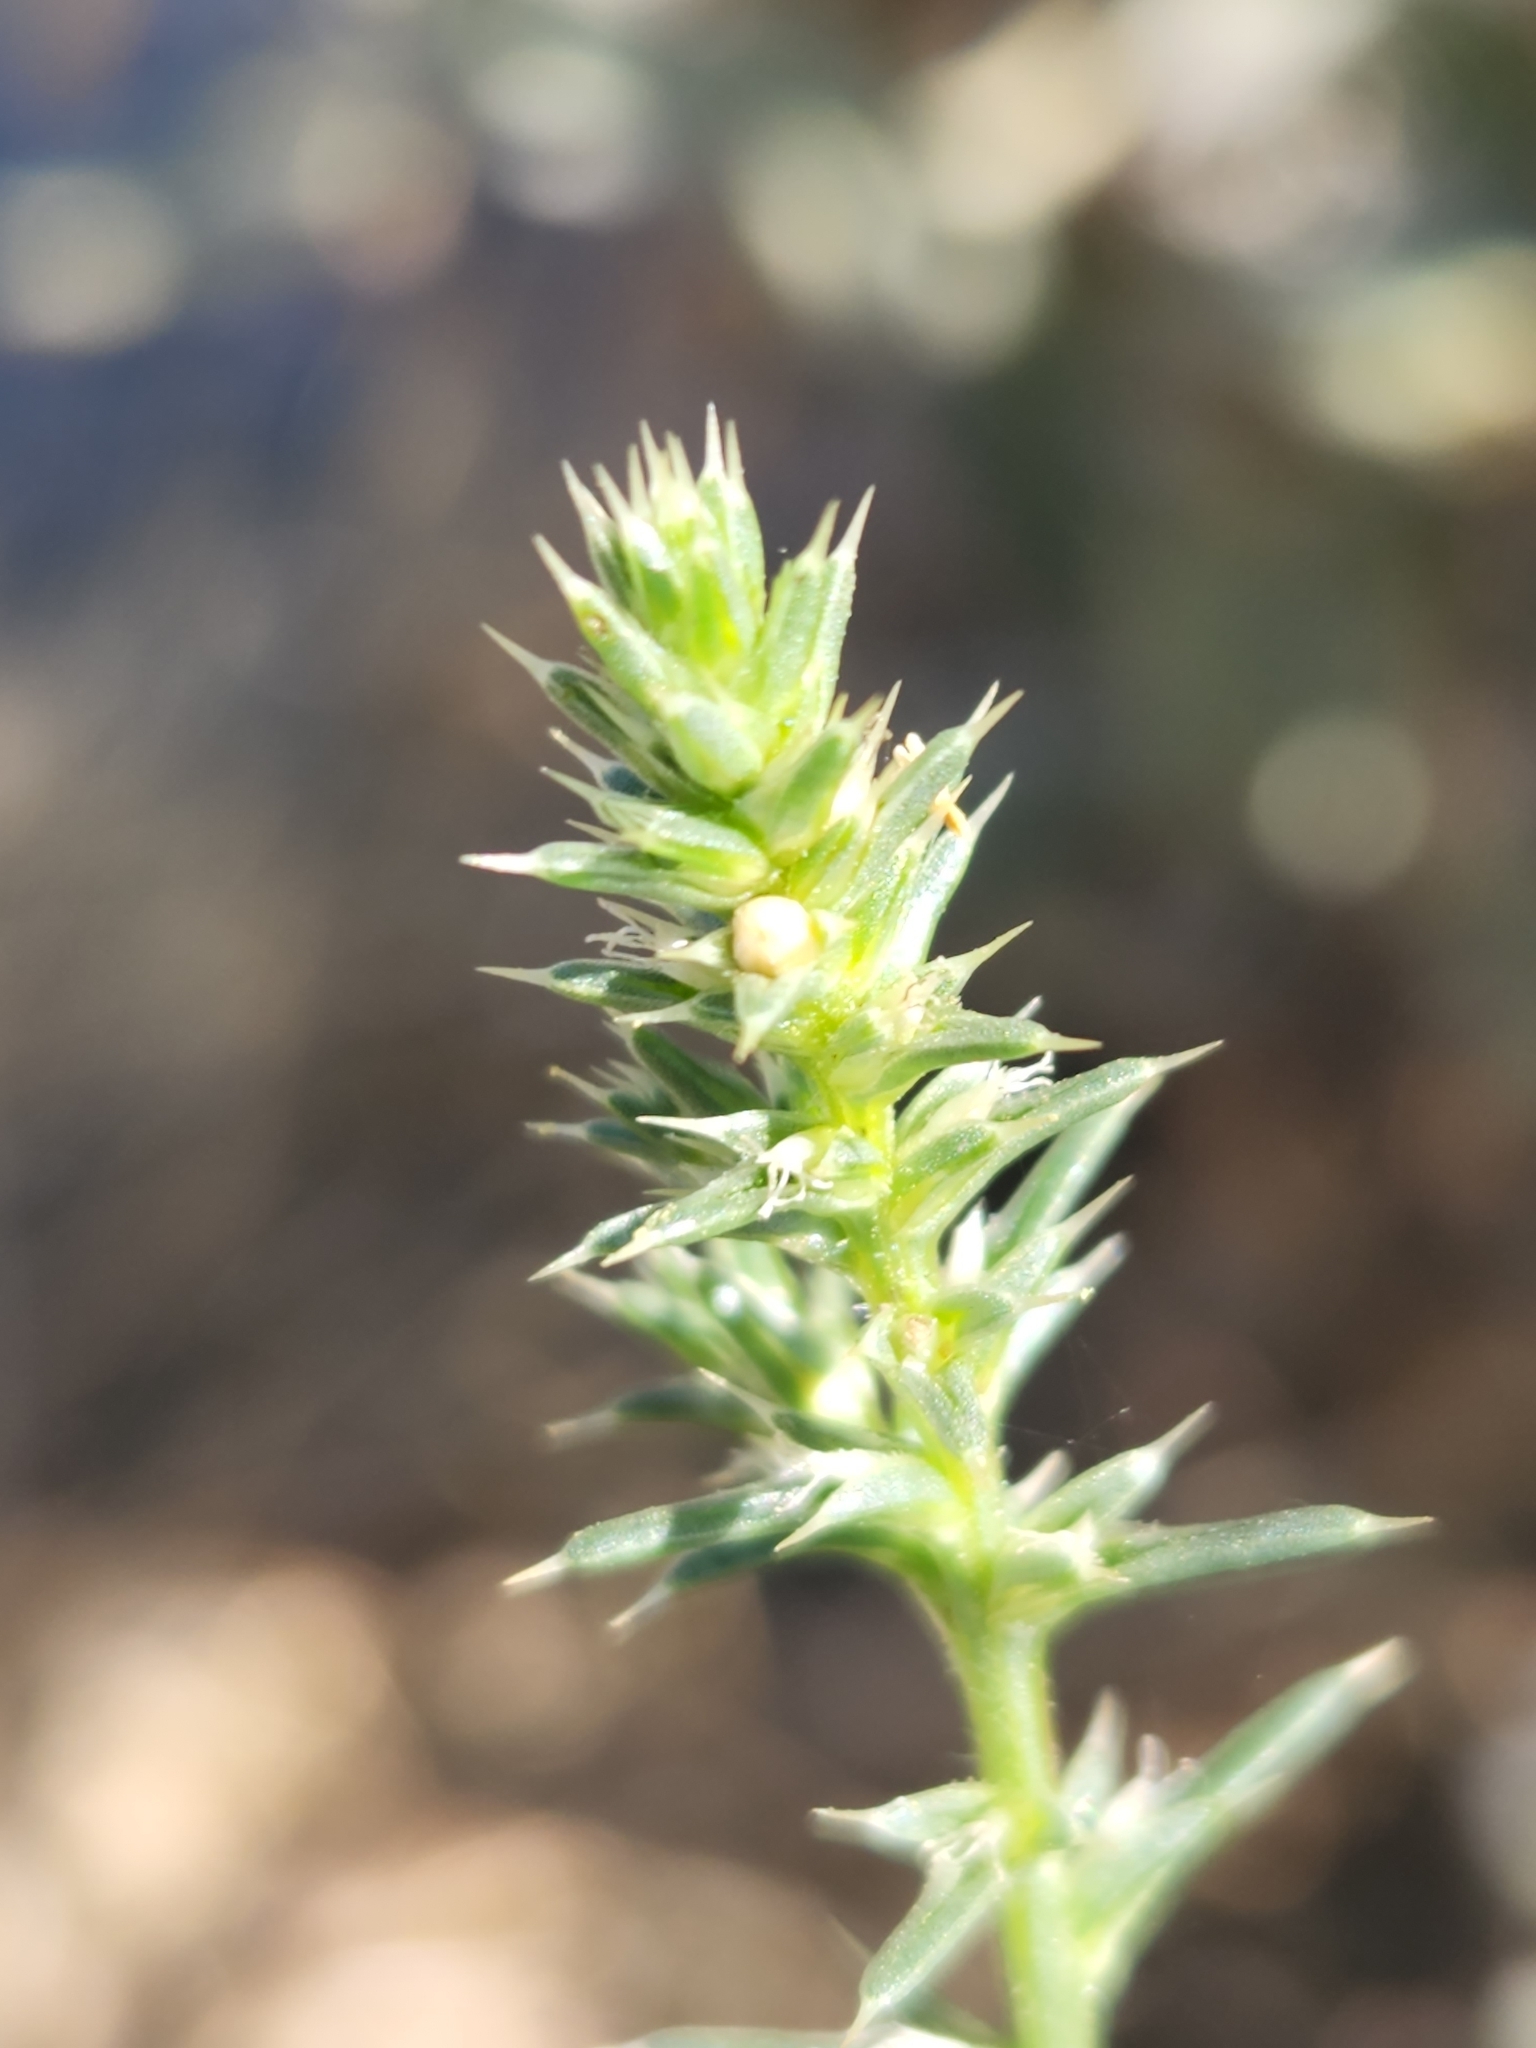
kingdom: Plantae
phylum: Tracheophyta
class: Magnoliopsida
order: Caryophyllales
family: Amaranthaceae
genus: Salsola
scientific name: Salsola tragus
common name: Prickly russian thistle
